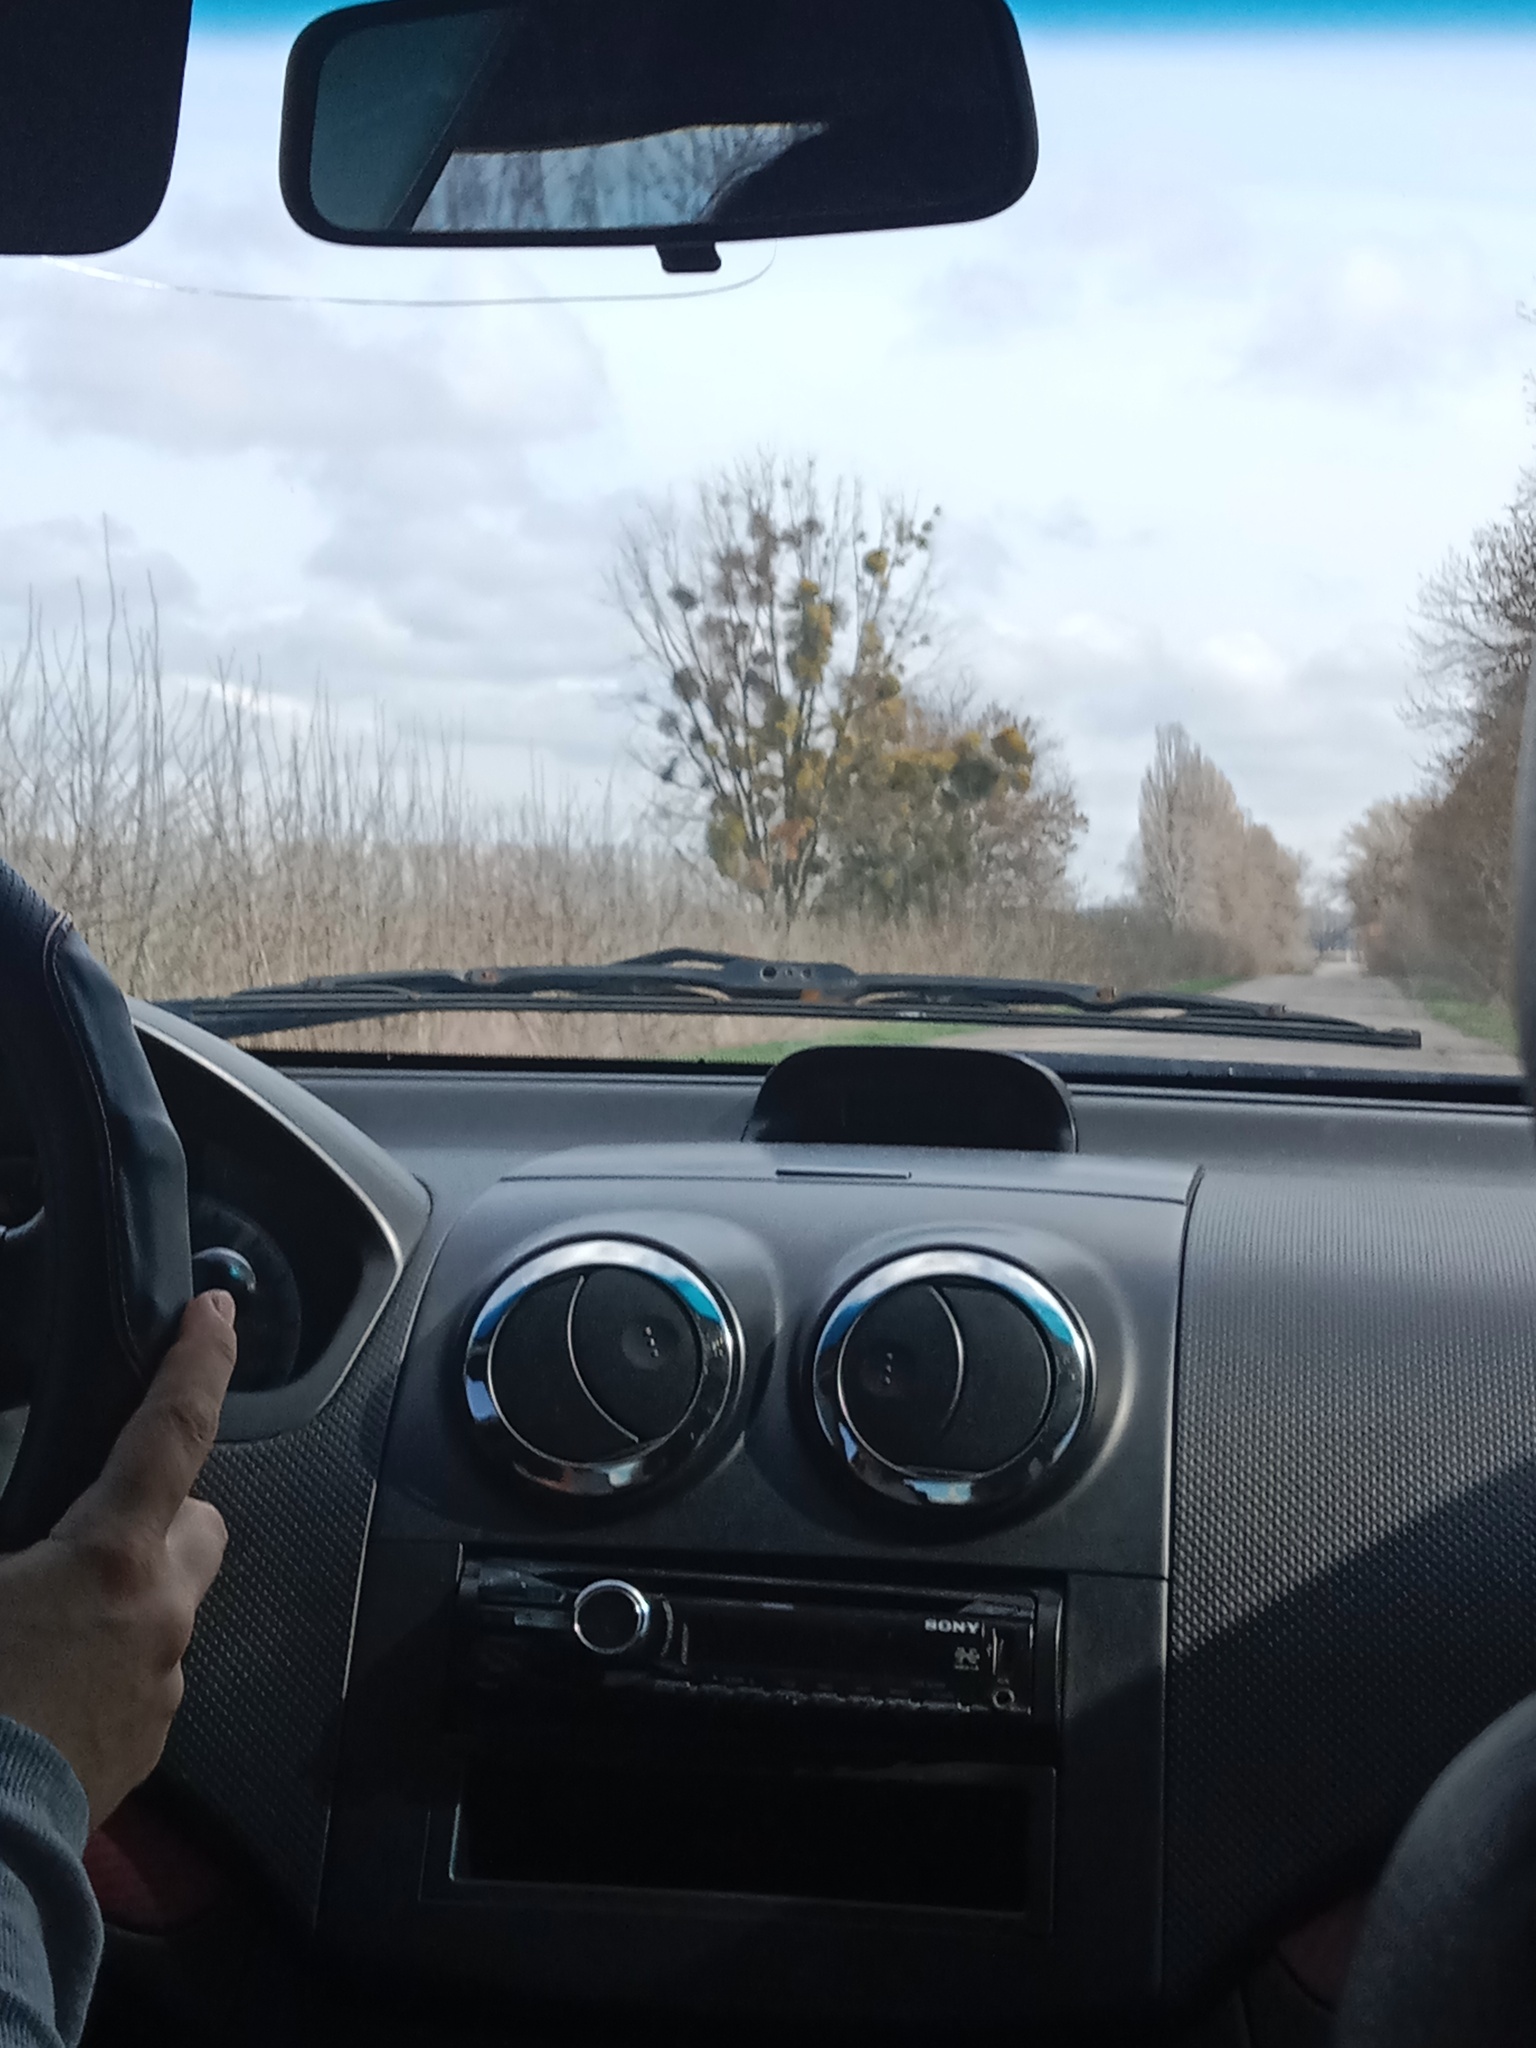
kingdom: Plantae
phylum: Tracheophyta
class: Magnoliopsida
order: Santalales
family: Viscaceae
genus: Viscum
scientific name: Viscum album
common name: Mistletoe
